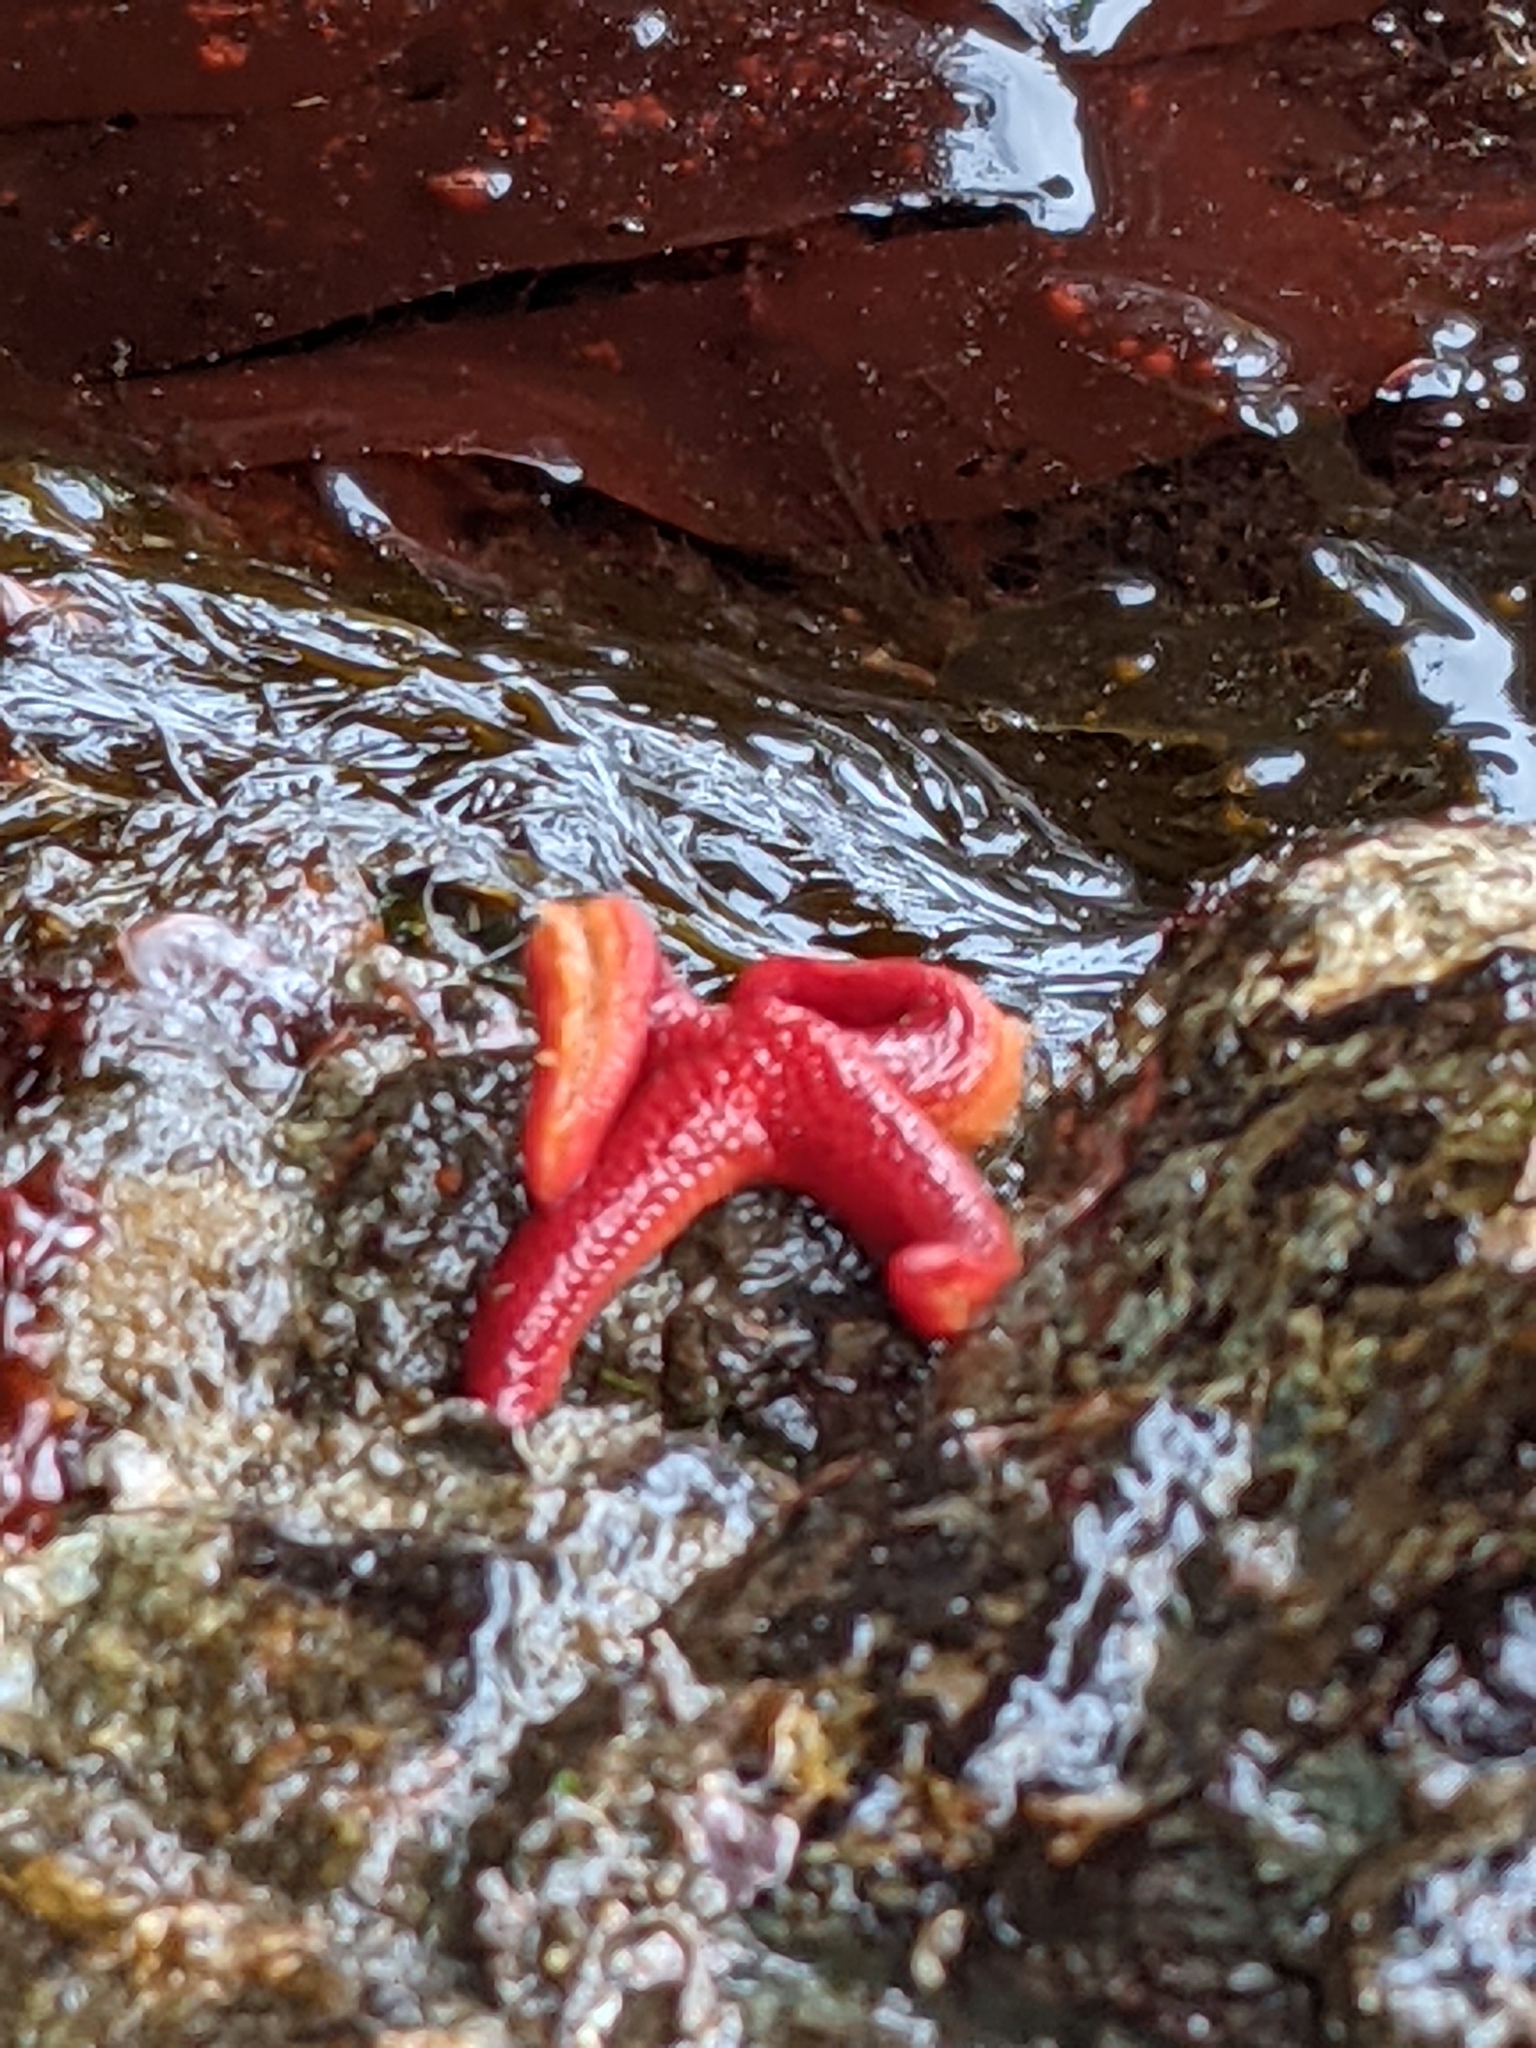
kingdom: Animalia
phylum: Echinodermata
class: Asteroidea
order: Spinulosida
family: Echinasteridae
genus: Henricia
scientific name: Henricia leviuscula
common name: Pacific blood star
